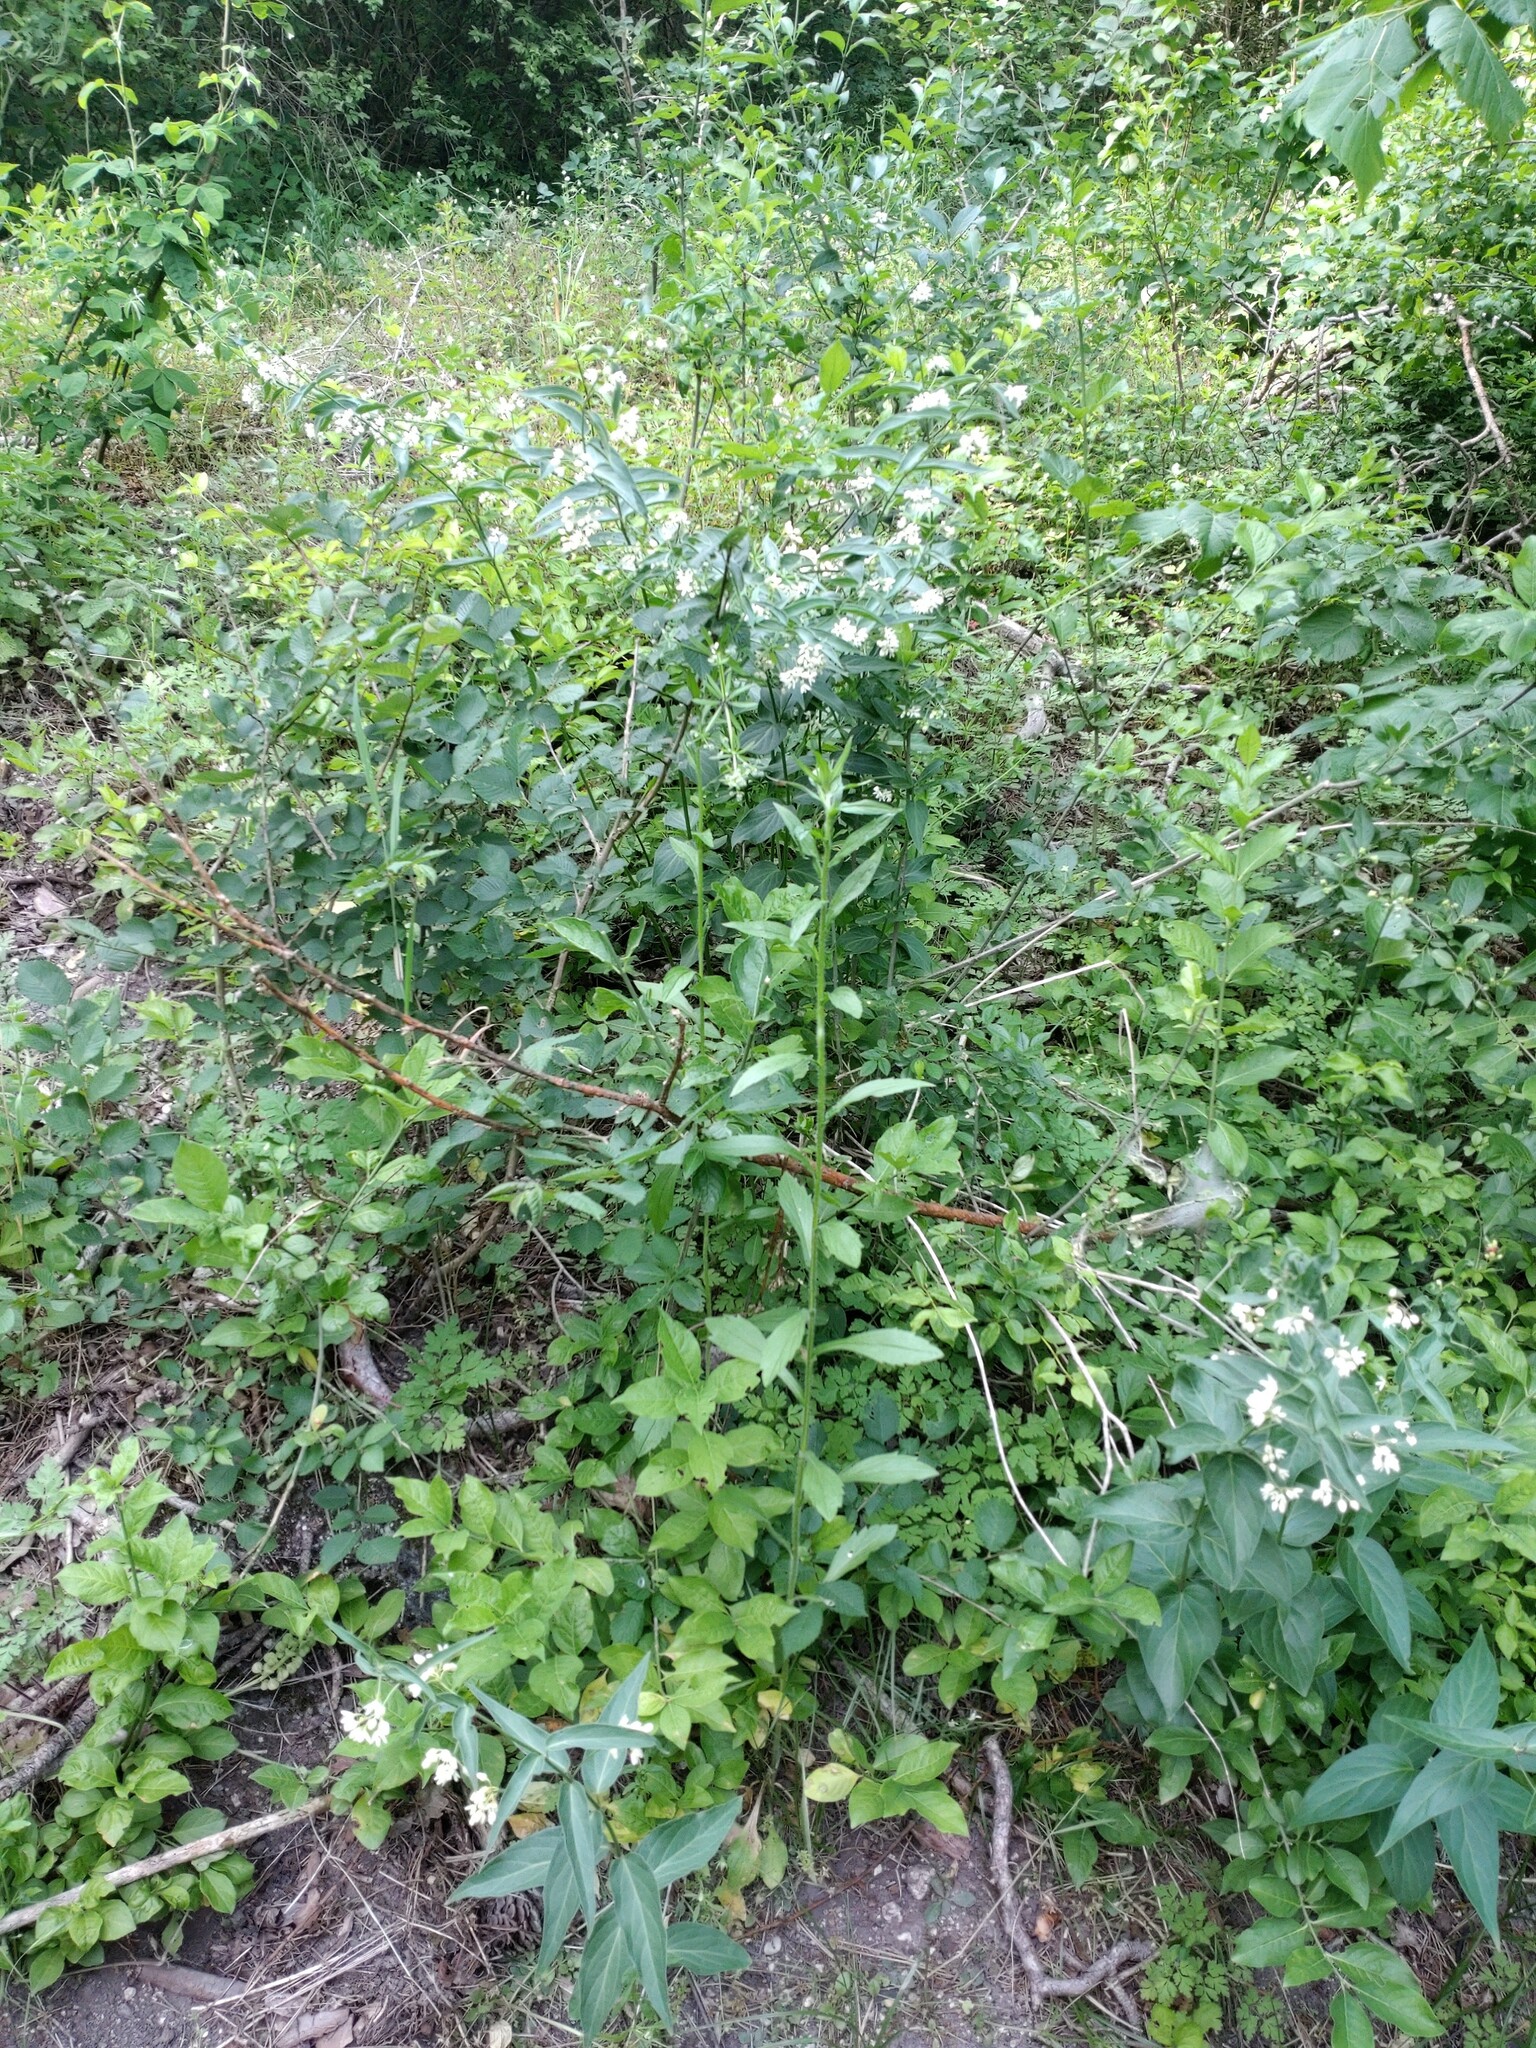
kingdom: Plantae
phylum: Tracheophyta
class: Magnoliopsida
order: Gentianales
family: Apocynaceae
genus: Vincetoxicum
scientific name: Vincetoxicum hirundinaria
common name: White swallowwort
